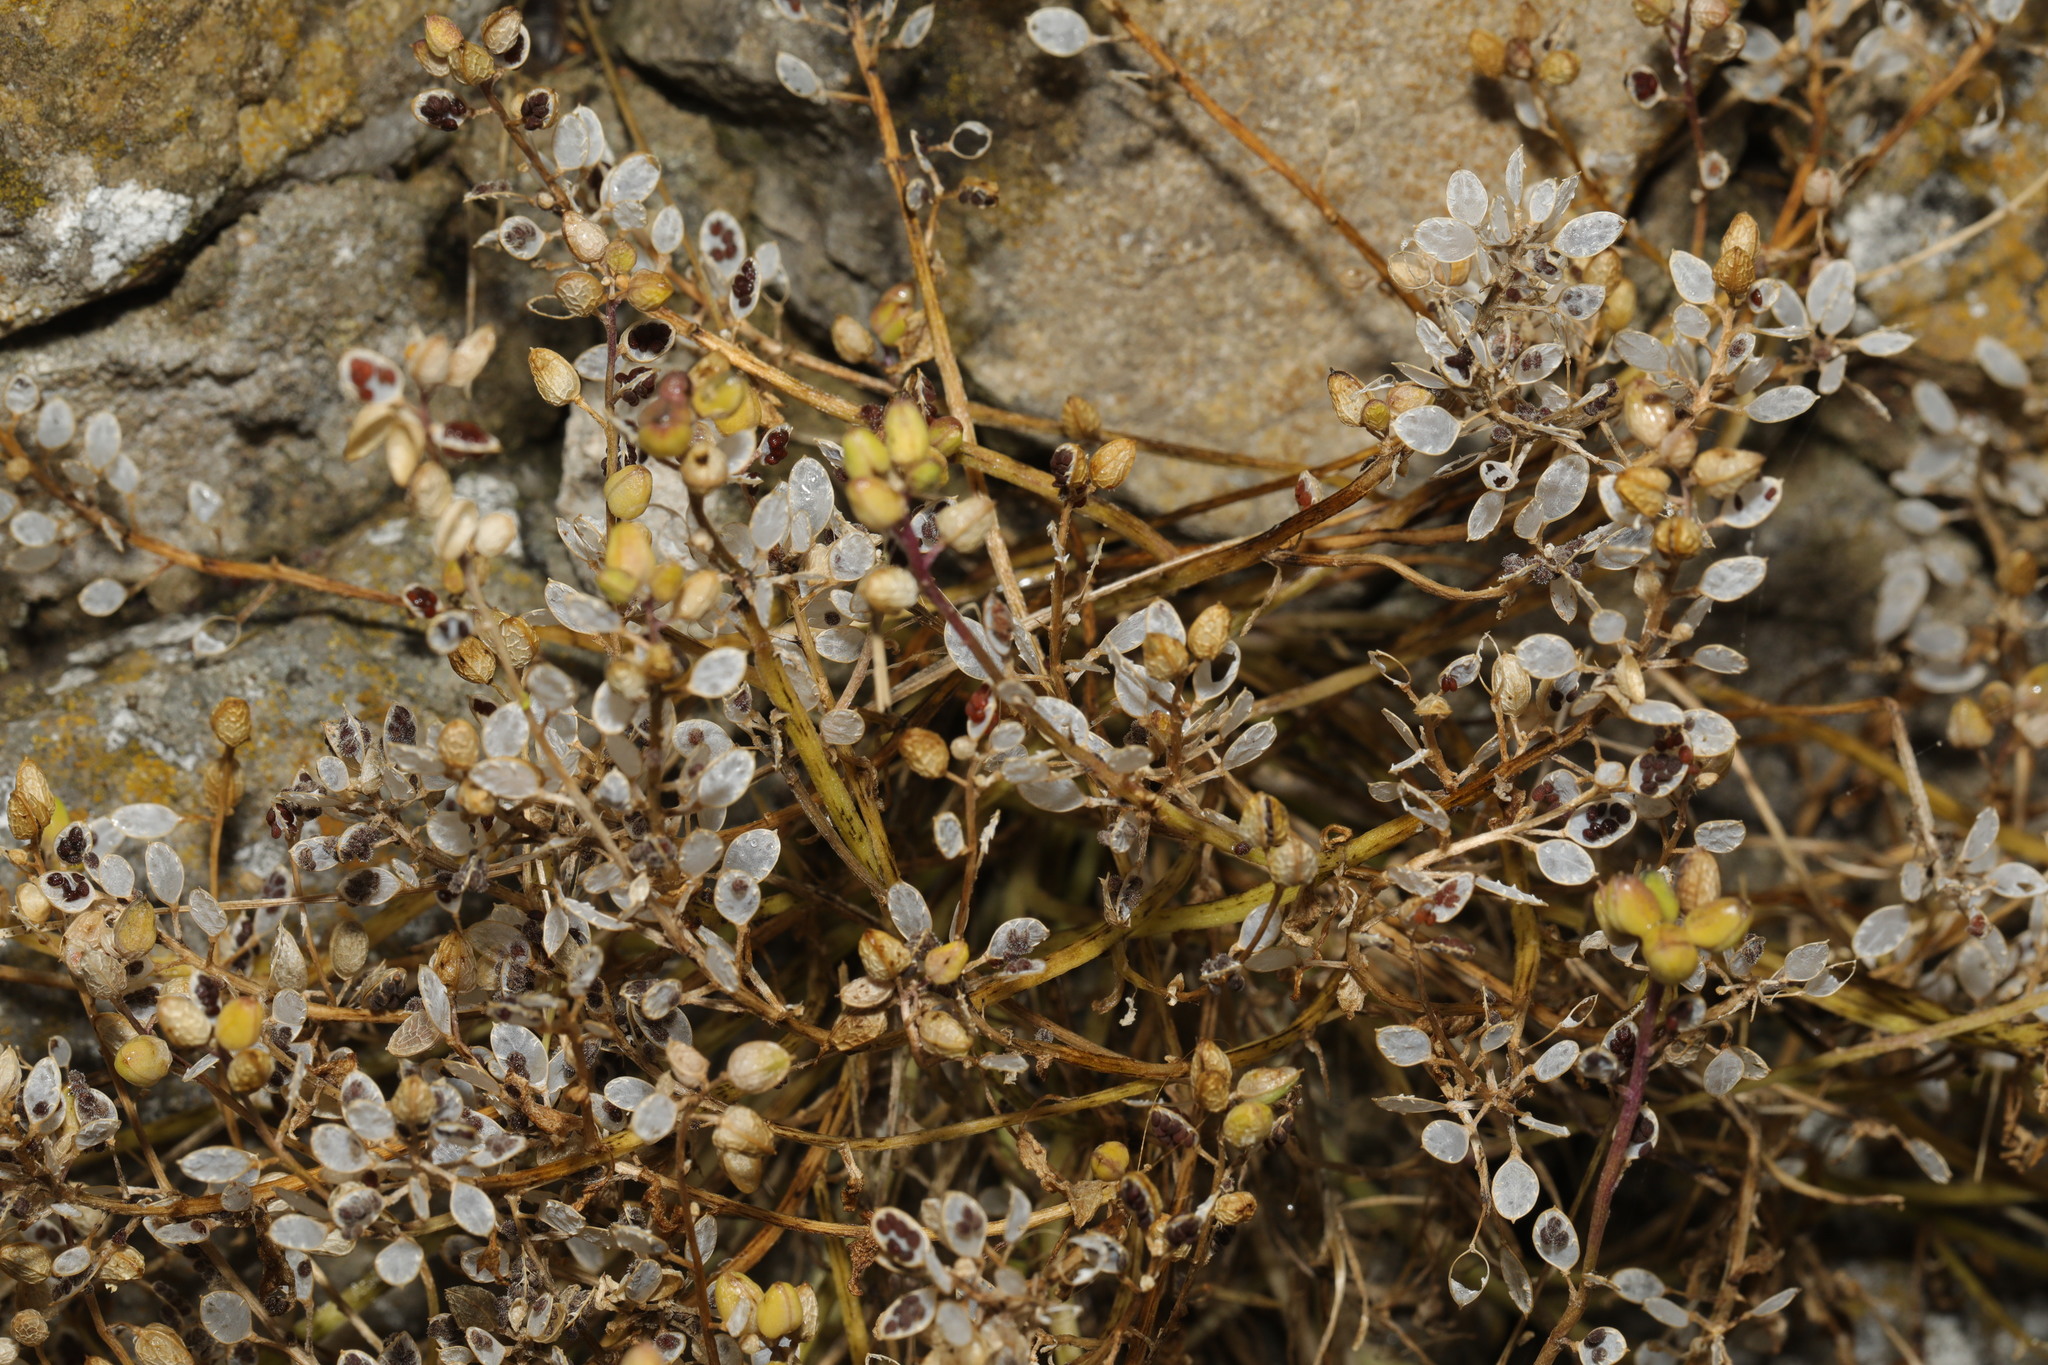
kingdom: Plantae
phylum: Tracheophyta
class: Magnoliopsida
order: Brassicales
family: Brassicaceae
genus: Cochlearia
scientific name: Cochlearia officinalis
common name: Scurvy-grass
